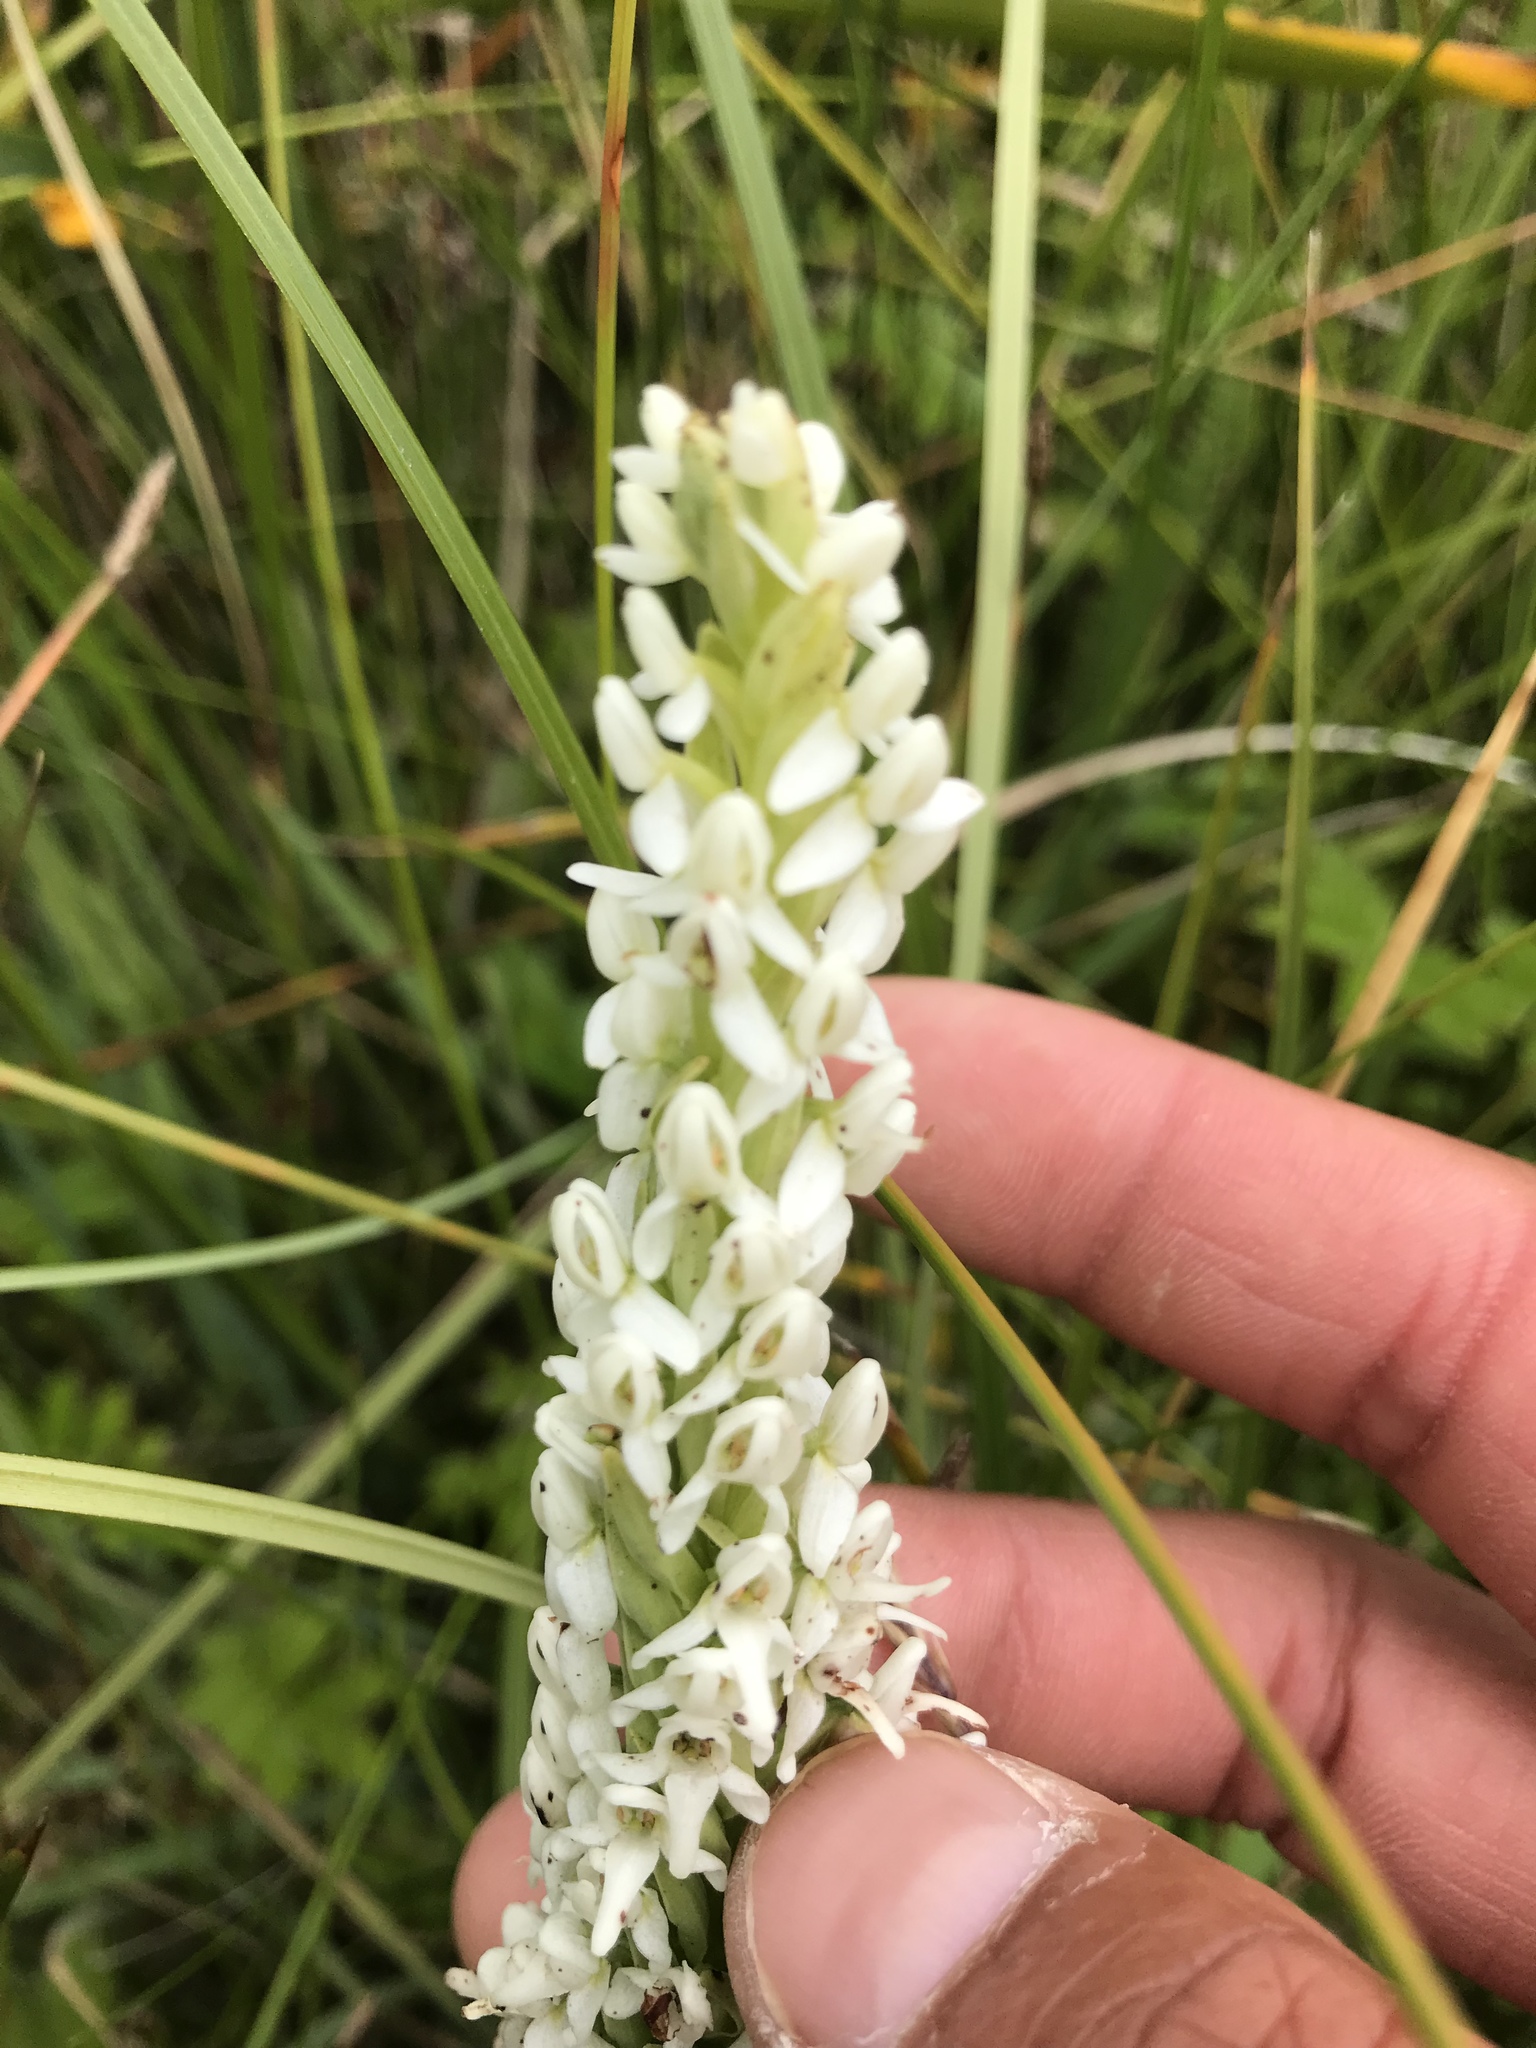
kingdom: Plantae
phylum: Tracheophyta
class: Liliopsida
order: Asparagales
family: Orchidaceae
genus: Platanthera
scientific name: Platanthera dilatata
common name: Bog candles
